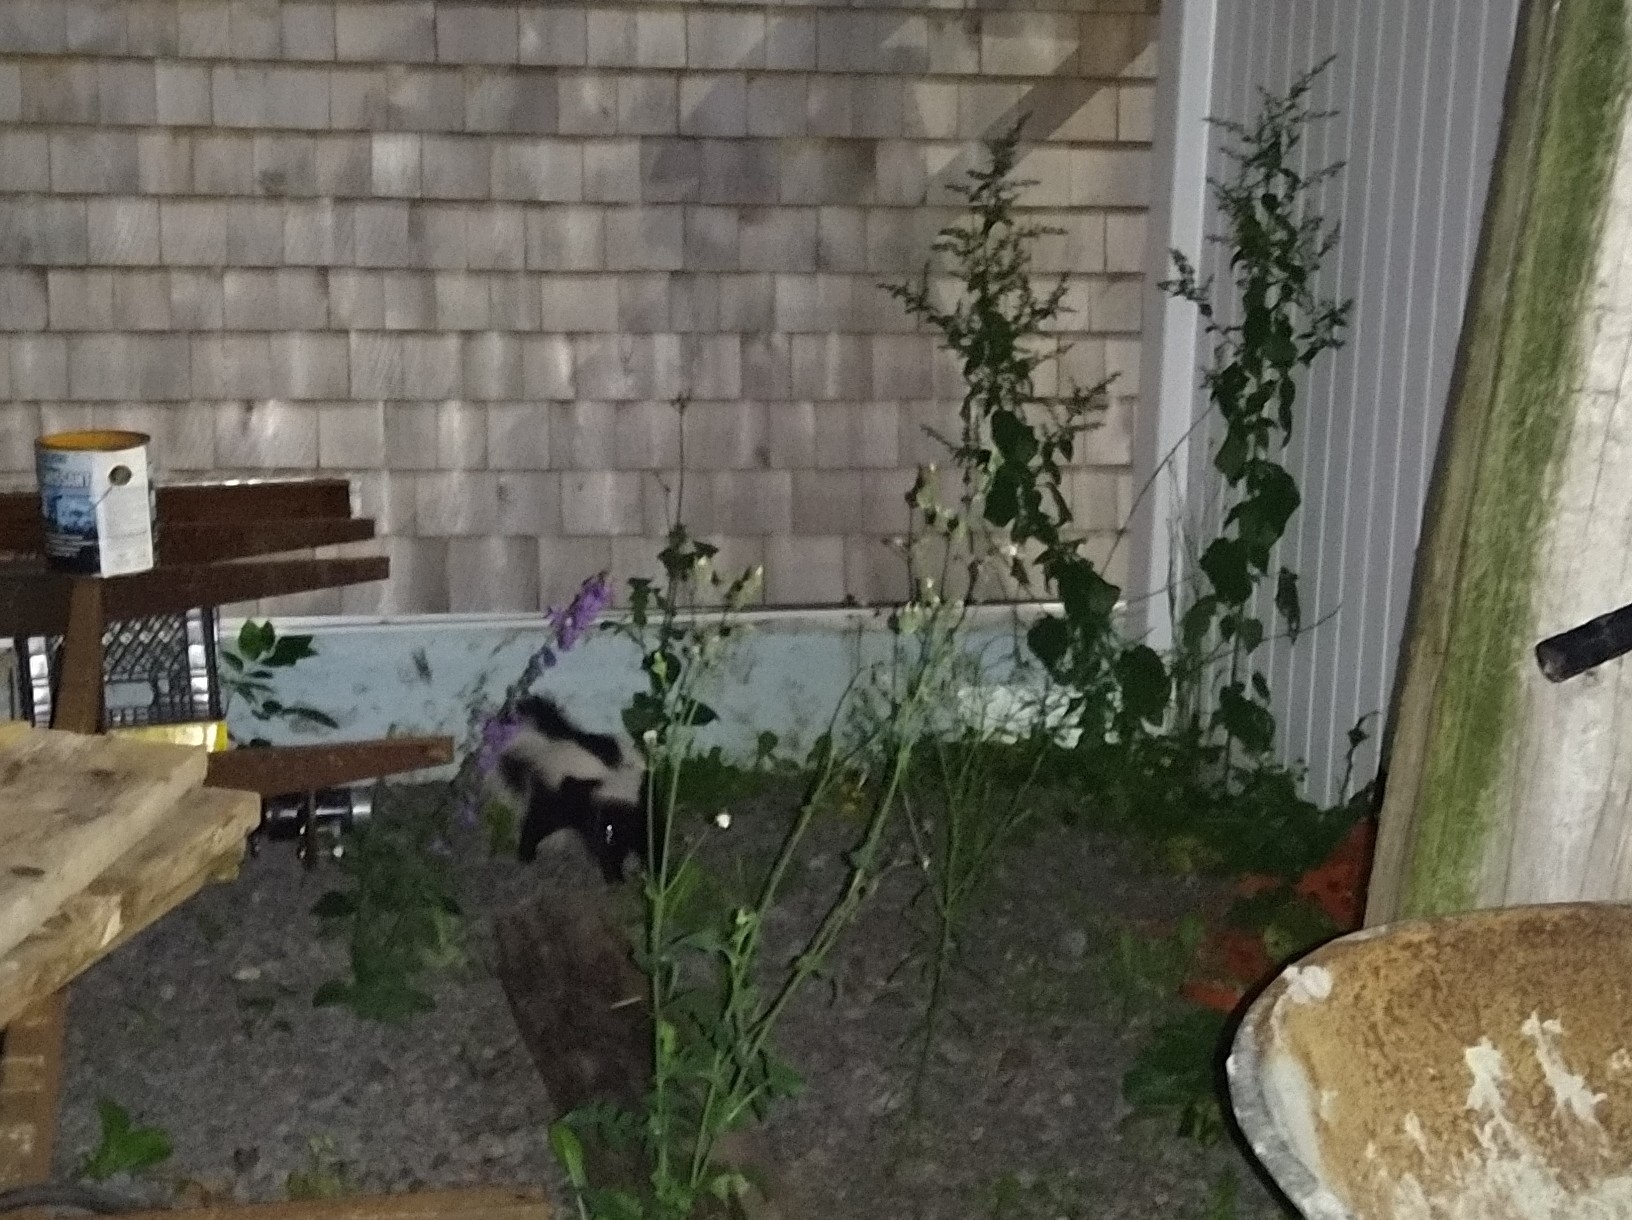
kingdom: Animalia
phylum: Chordata
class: Mammalia
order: Carnivora
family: Mephitidae
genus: Mephitis
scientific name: Mephitis mephitis
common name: Striped skunk
